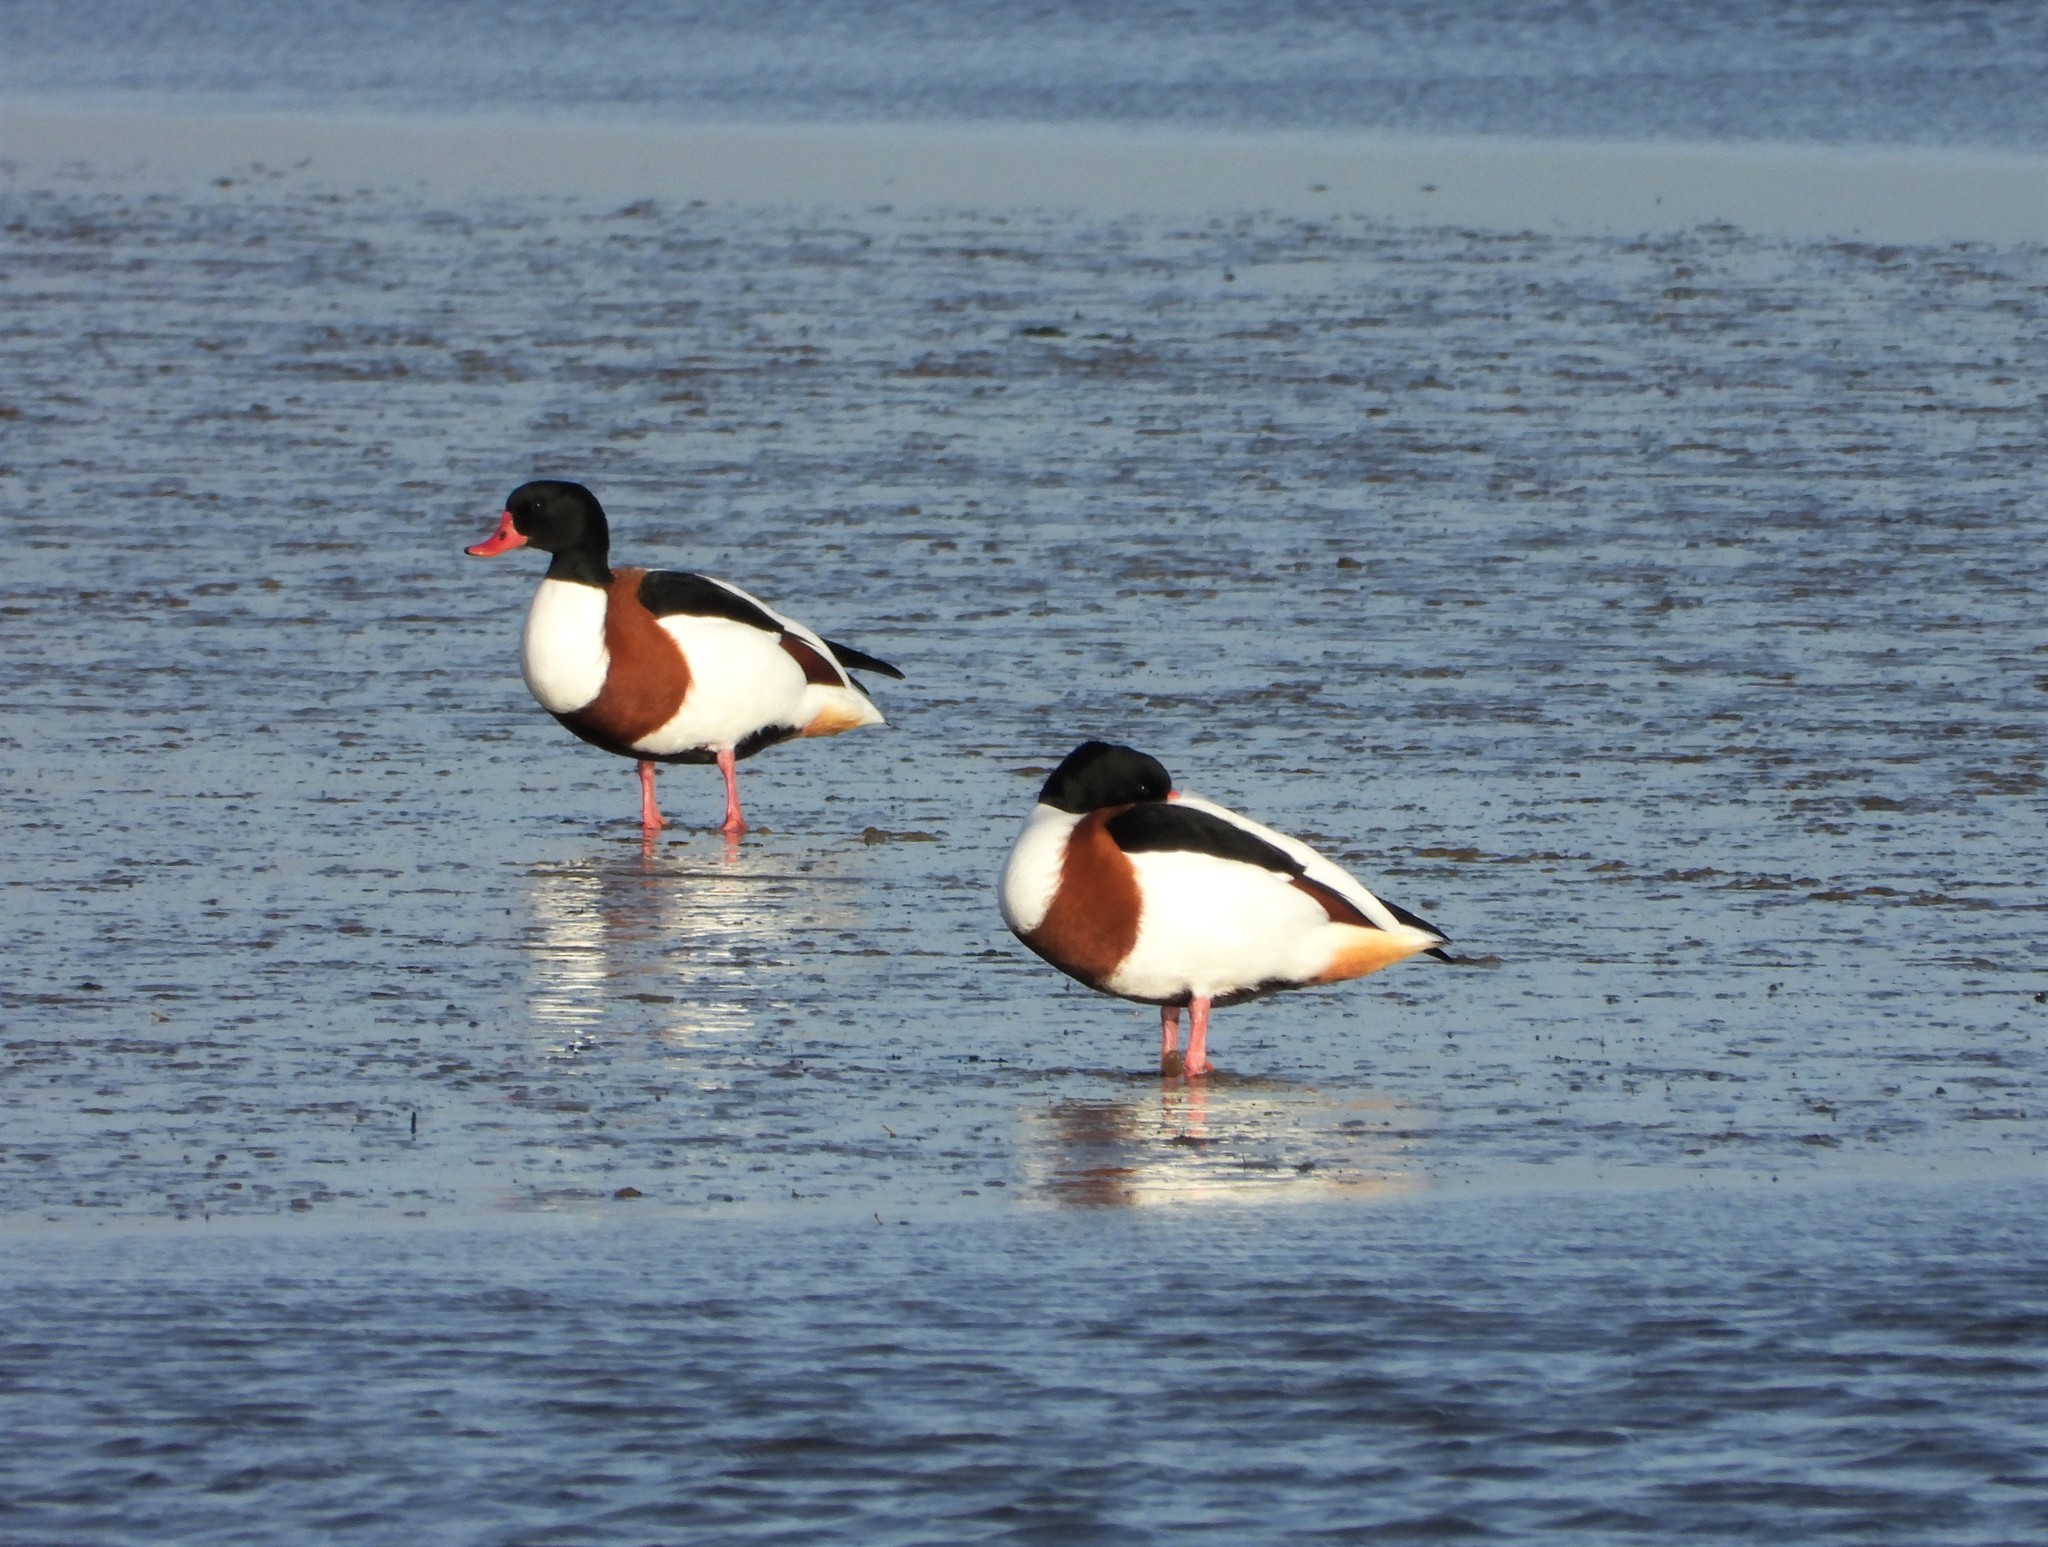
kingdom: Animalia
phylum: Chordata
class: Aves
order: Anseriformes
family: Anatidae
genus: Tadorna
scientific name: Tadorna tadorna
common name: Common shelduck
